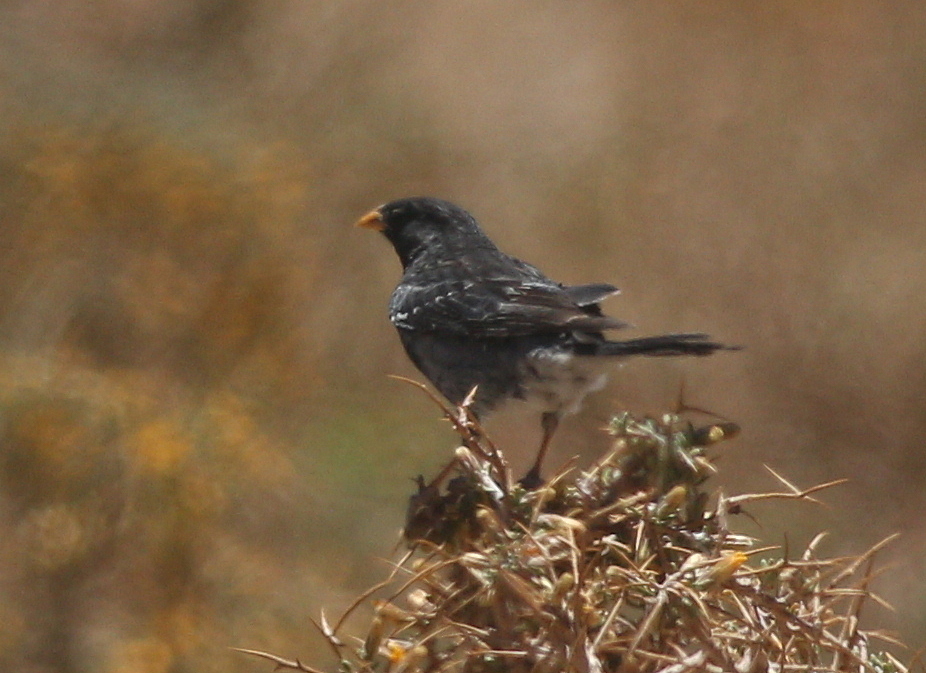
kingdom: Animalia
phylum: Chordata
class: Aves
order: Passeriformes
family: Thraupidae
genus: Rhopospina
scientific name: Rhopospina fruticeti
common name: Mourning sierra finch
